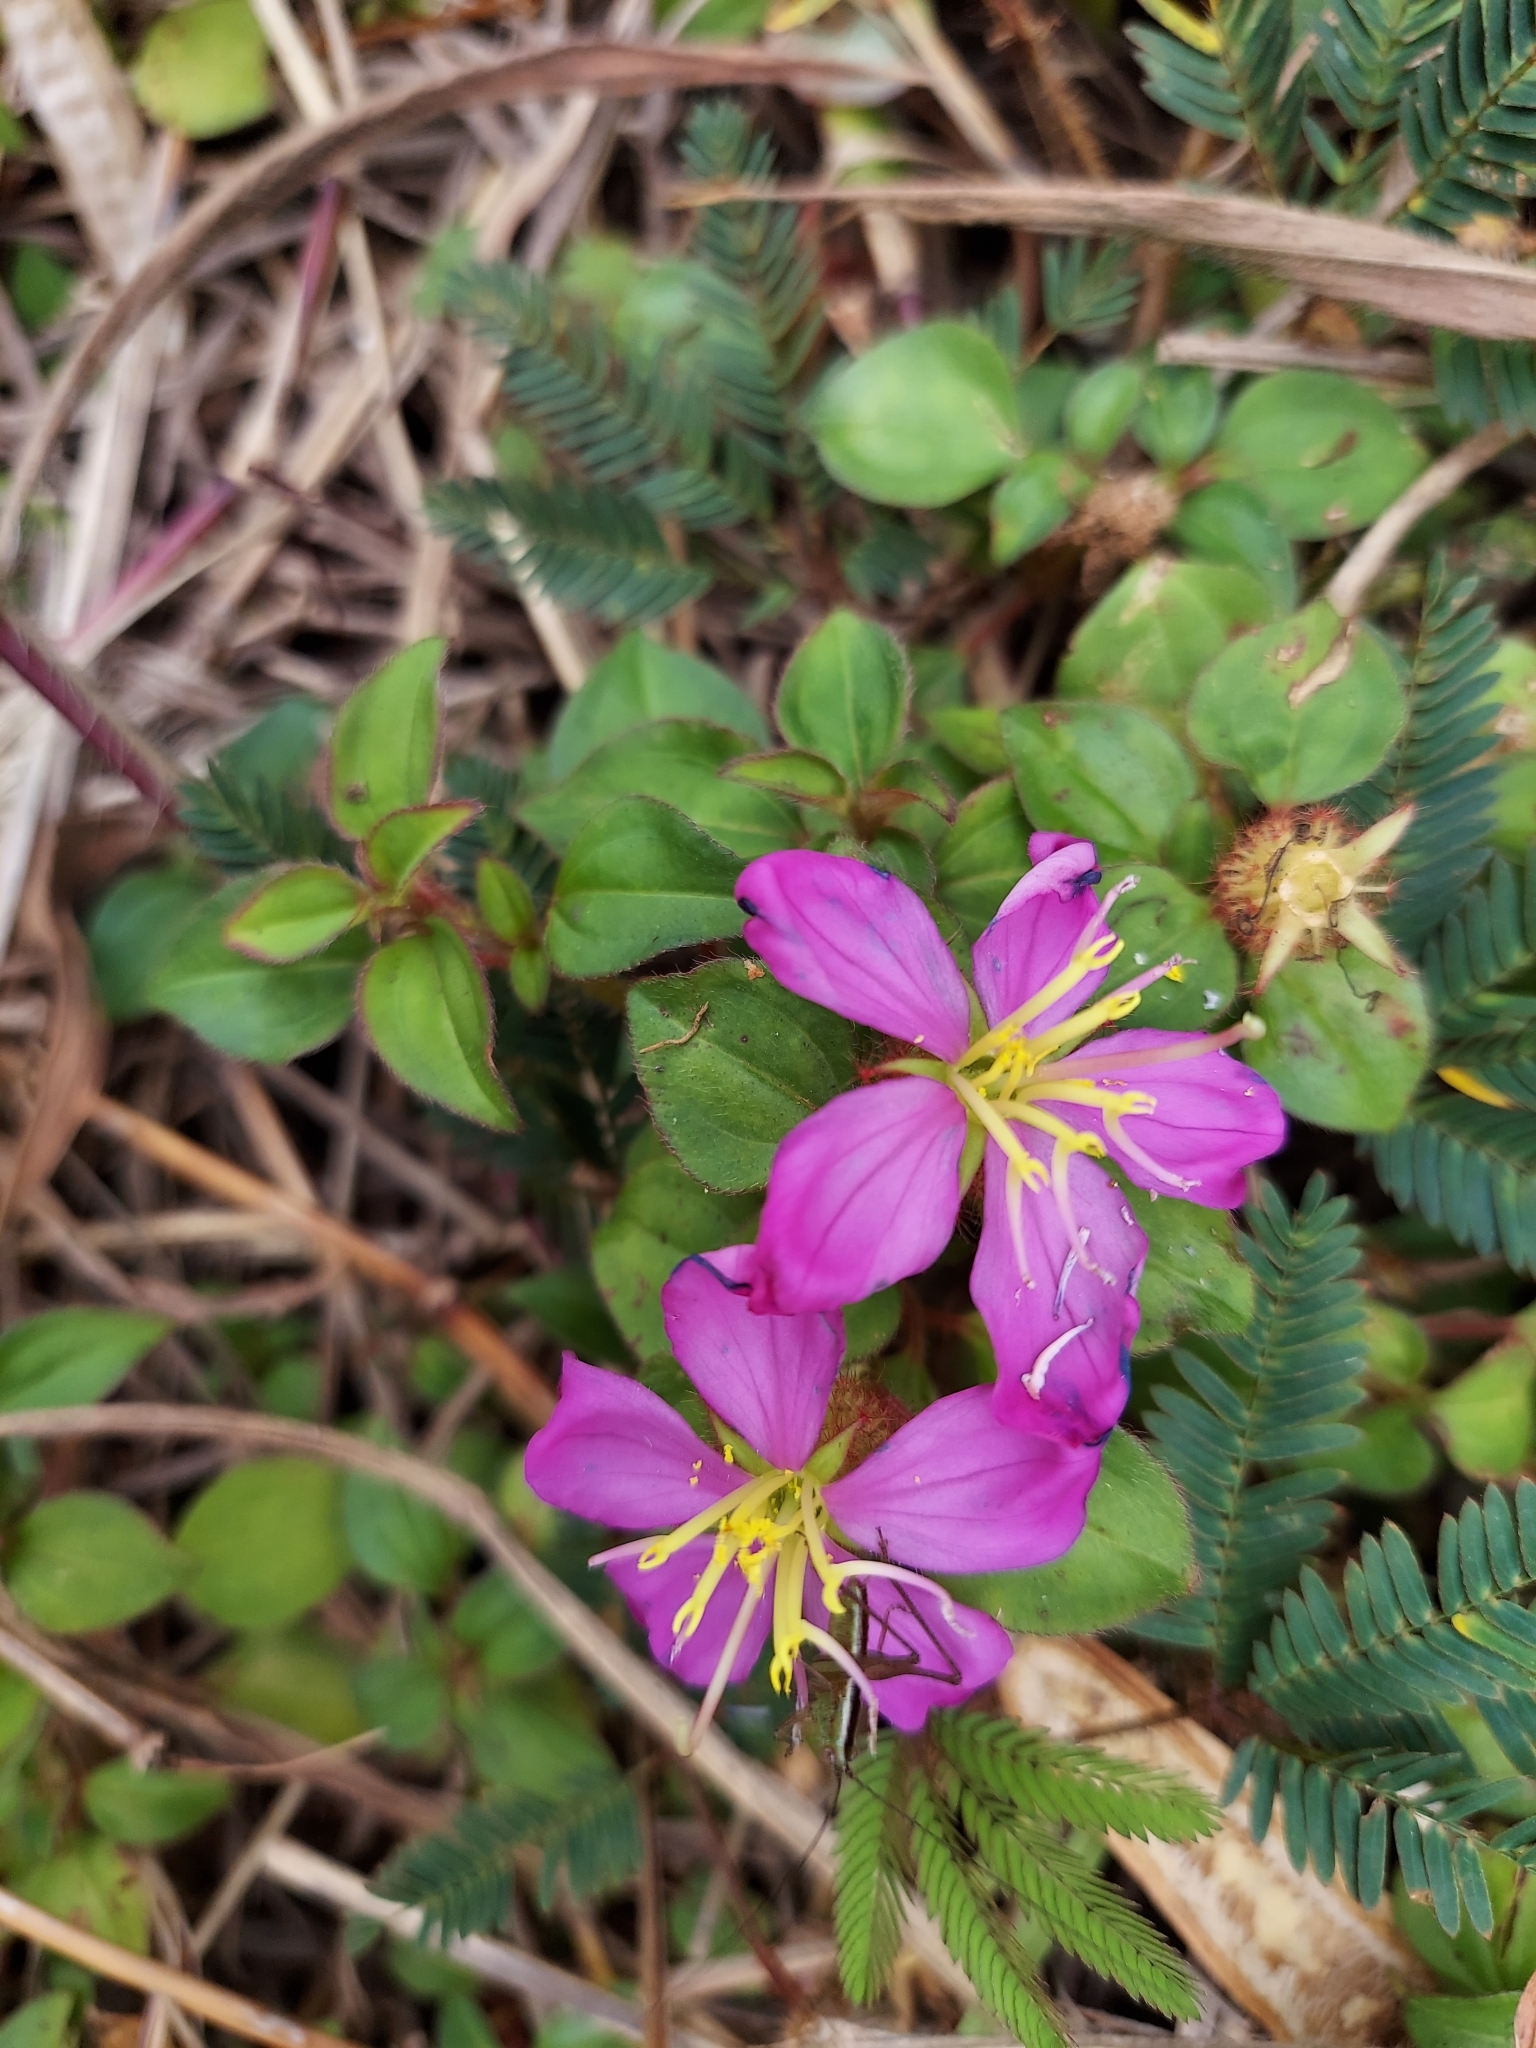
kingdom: Plantae
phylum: Tracheophyta
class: Magnoliopsida
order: Myrtales
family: Melastomataceae
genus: Heterotis
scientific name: Heterotis rotundifolia
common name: Pinklady
